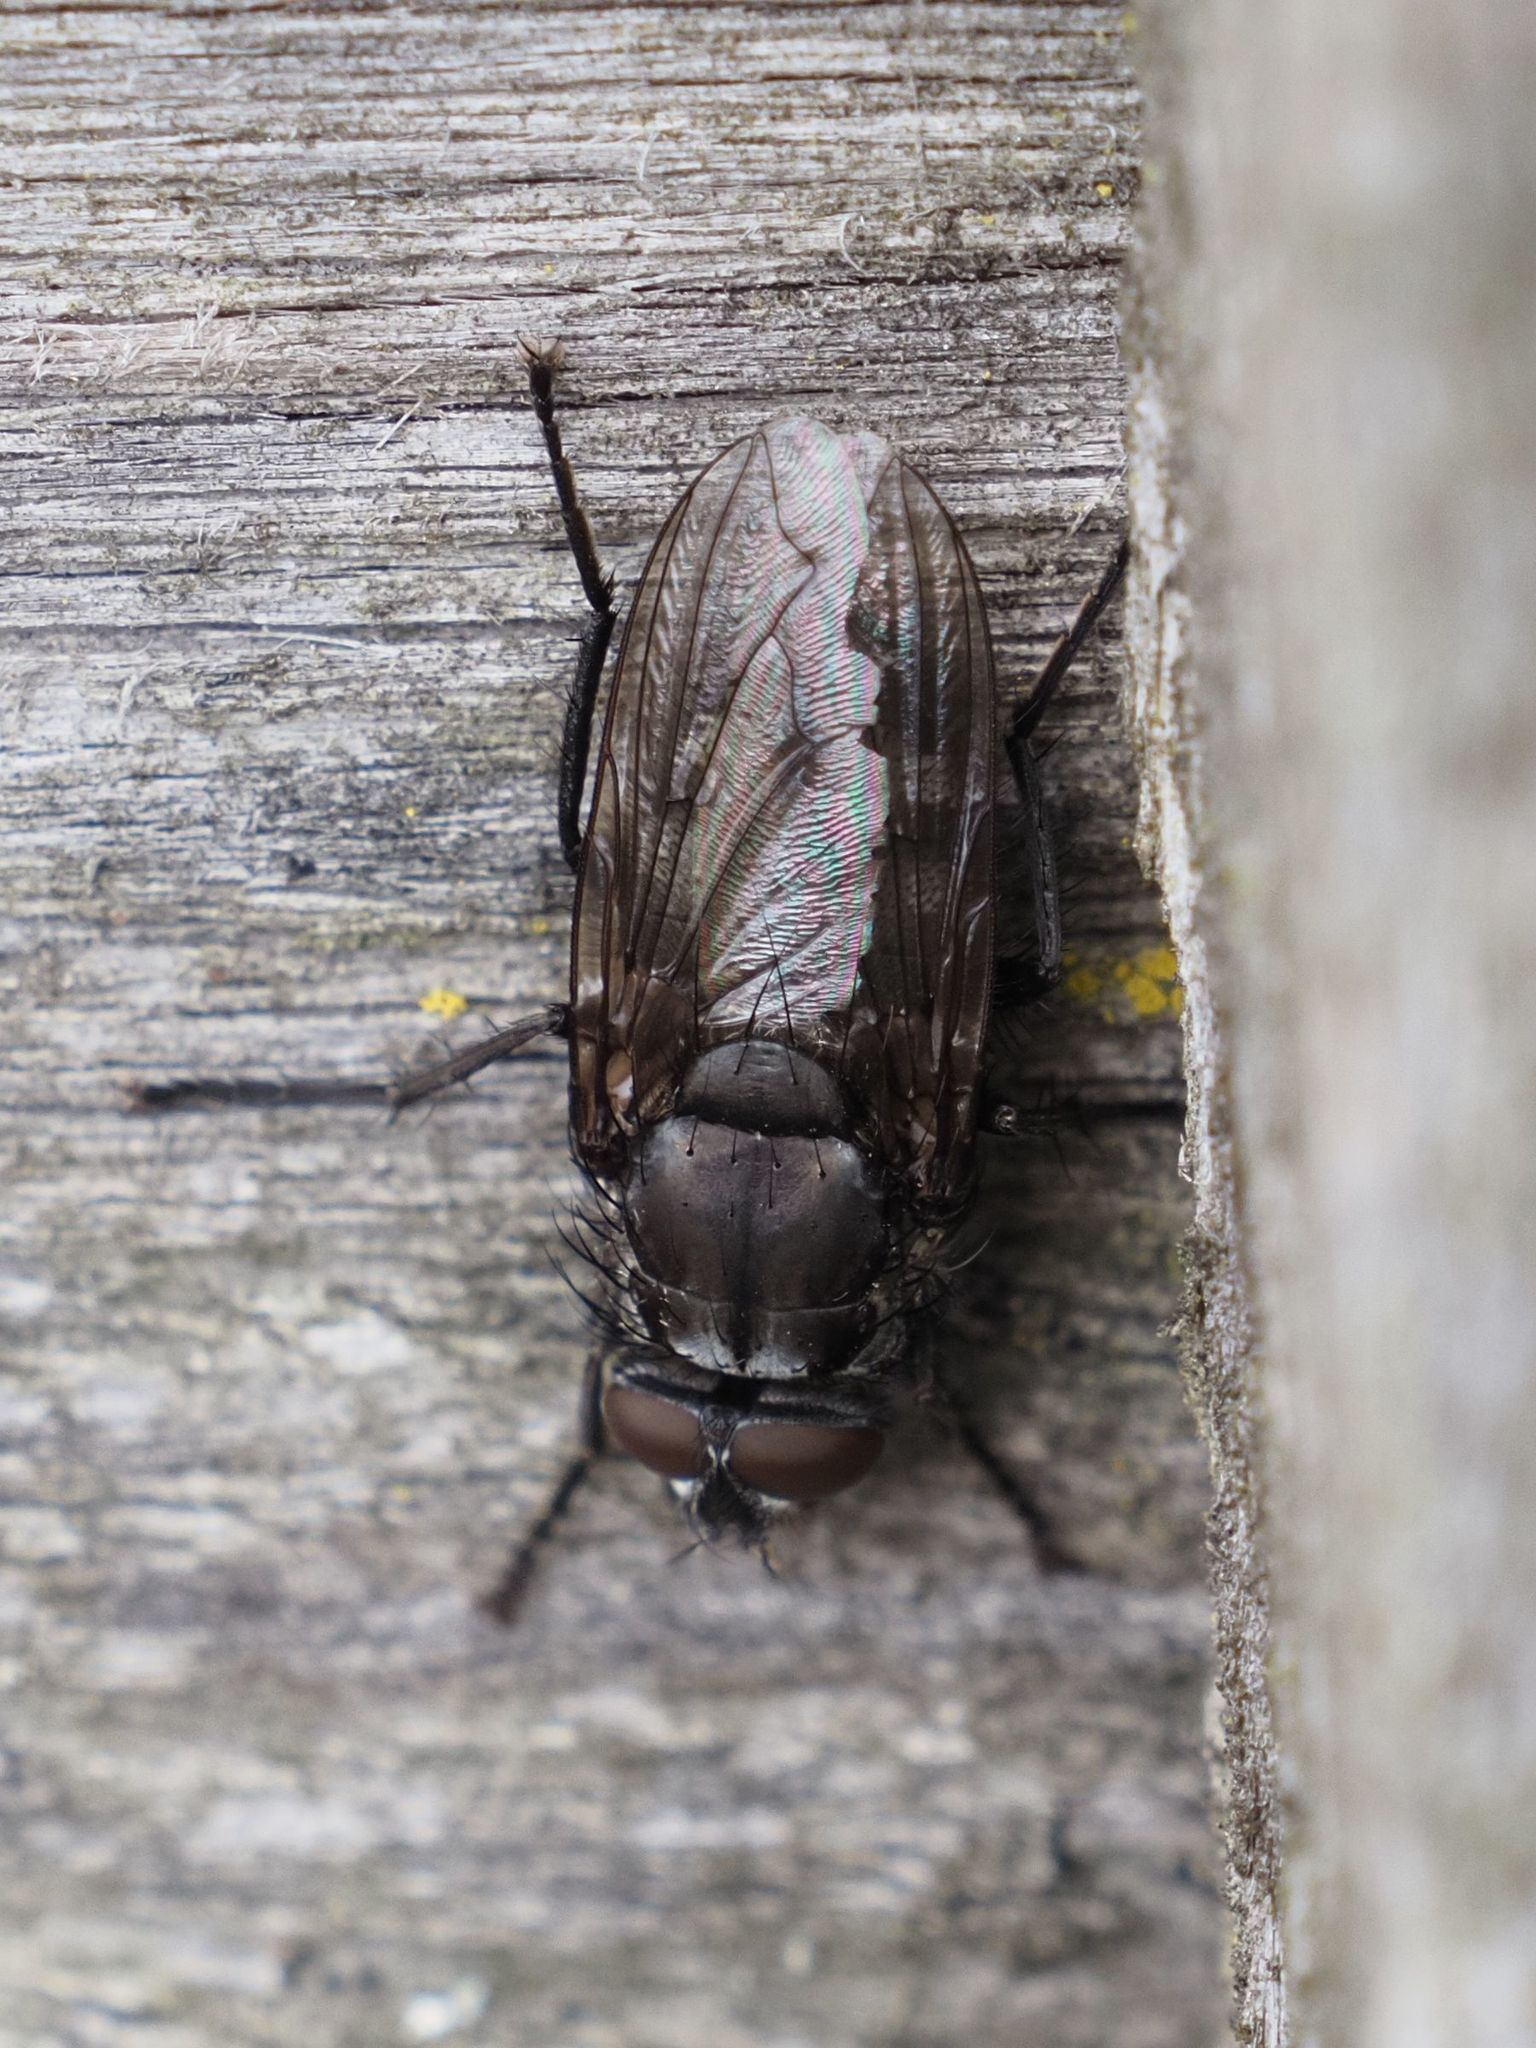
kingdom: Animalia
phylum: Arthropoda
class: Insecta
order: Diptera
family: Polleniidae
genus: Pollenia
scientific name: Pollenia vagabunda
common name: Vagabund cluster fly
